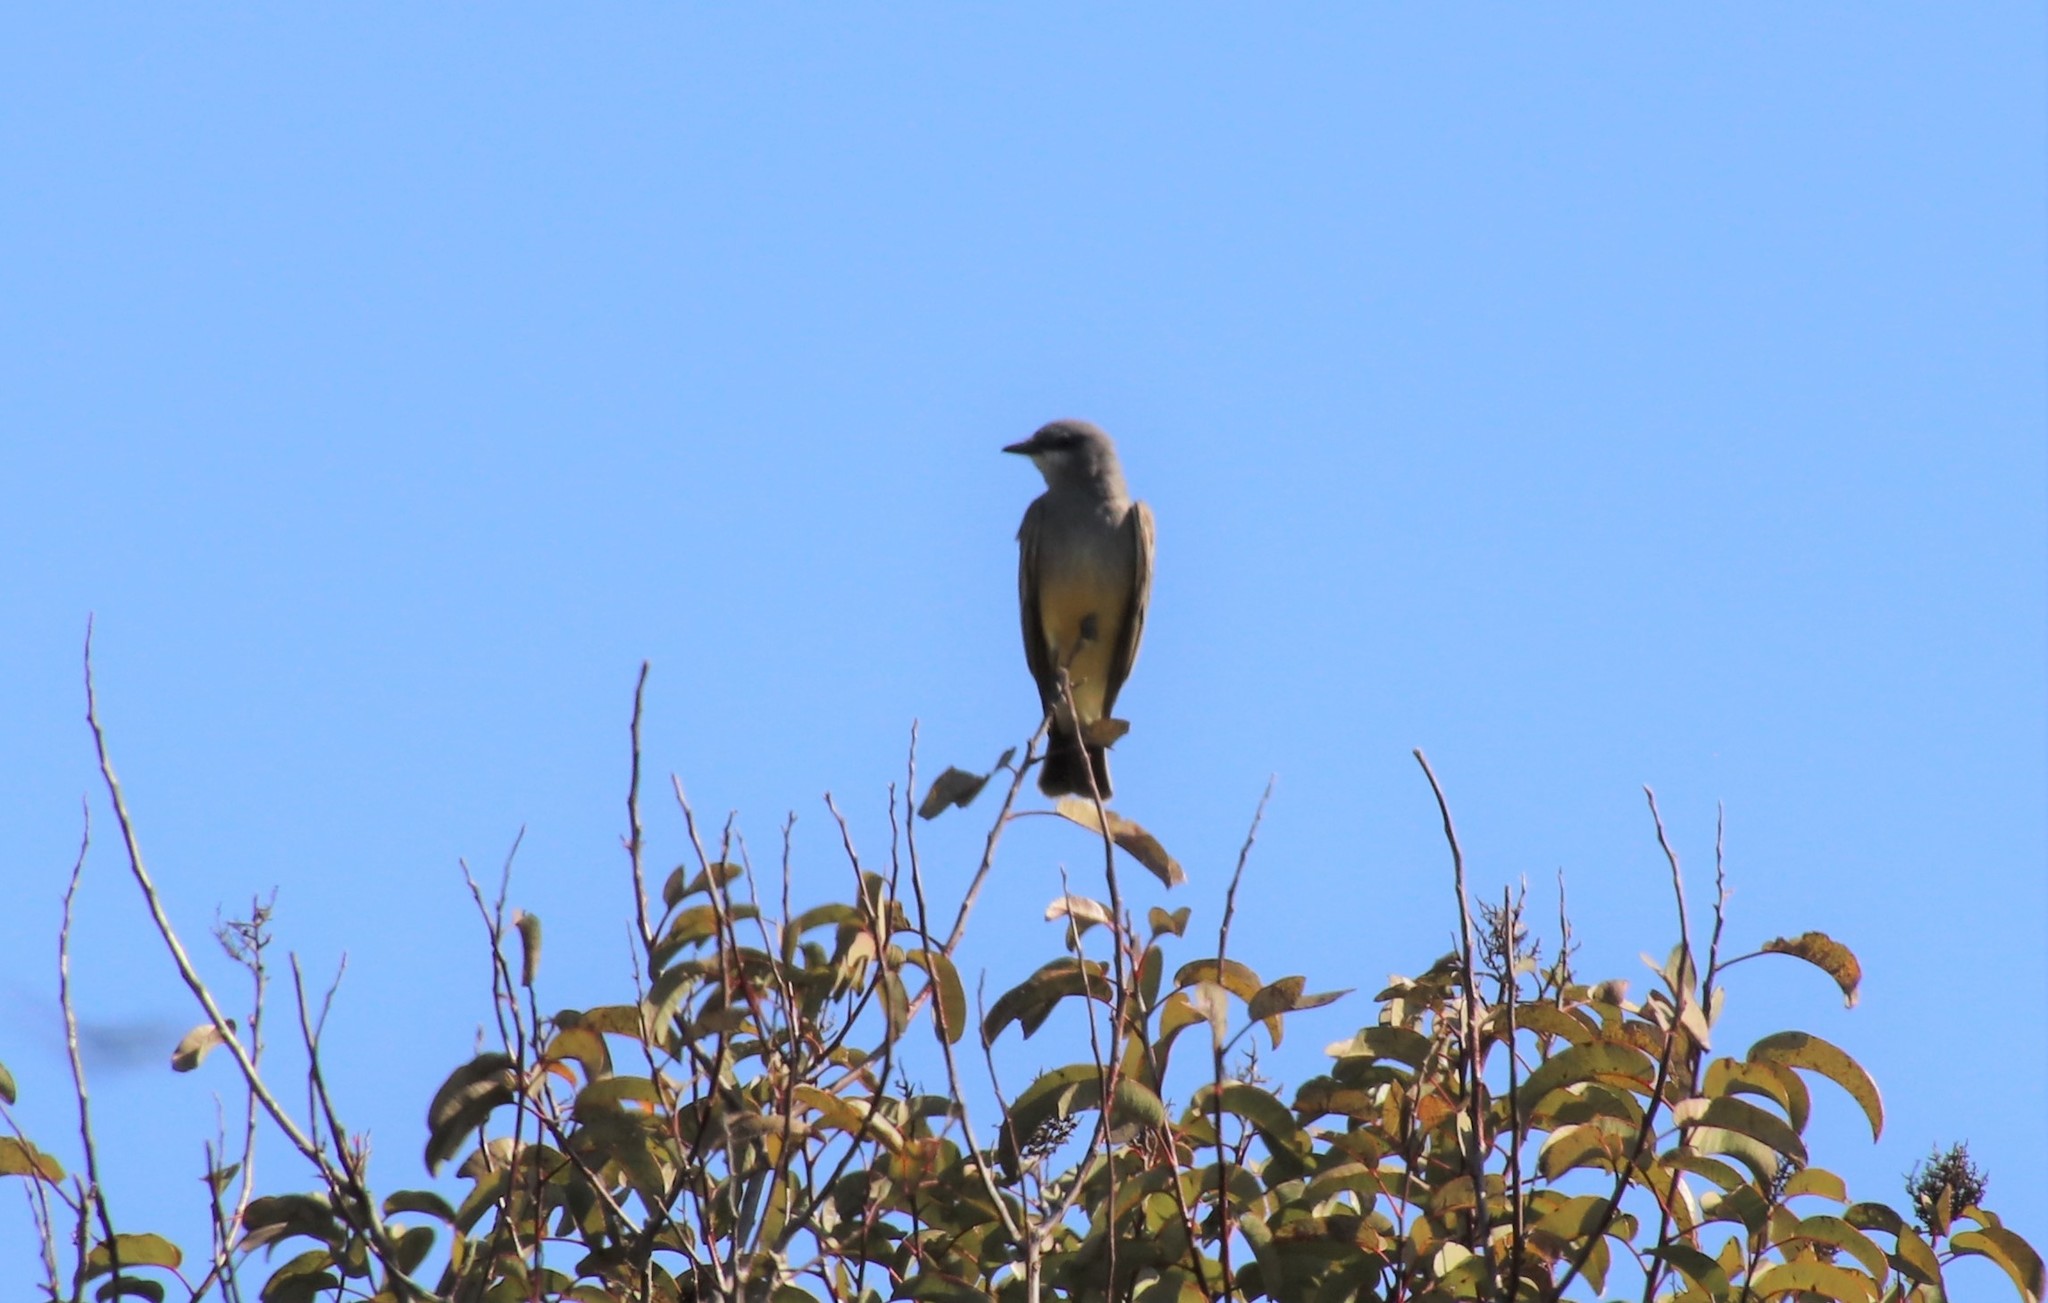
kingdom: Animalia
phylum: Chordata
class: Aves
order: Passeriformes
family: Tyrannidae
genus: Tyrannus
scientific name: Tyrannus vociferans
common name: Cassin's kingbird
